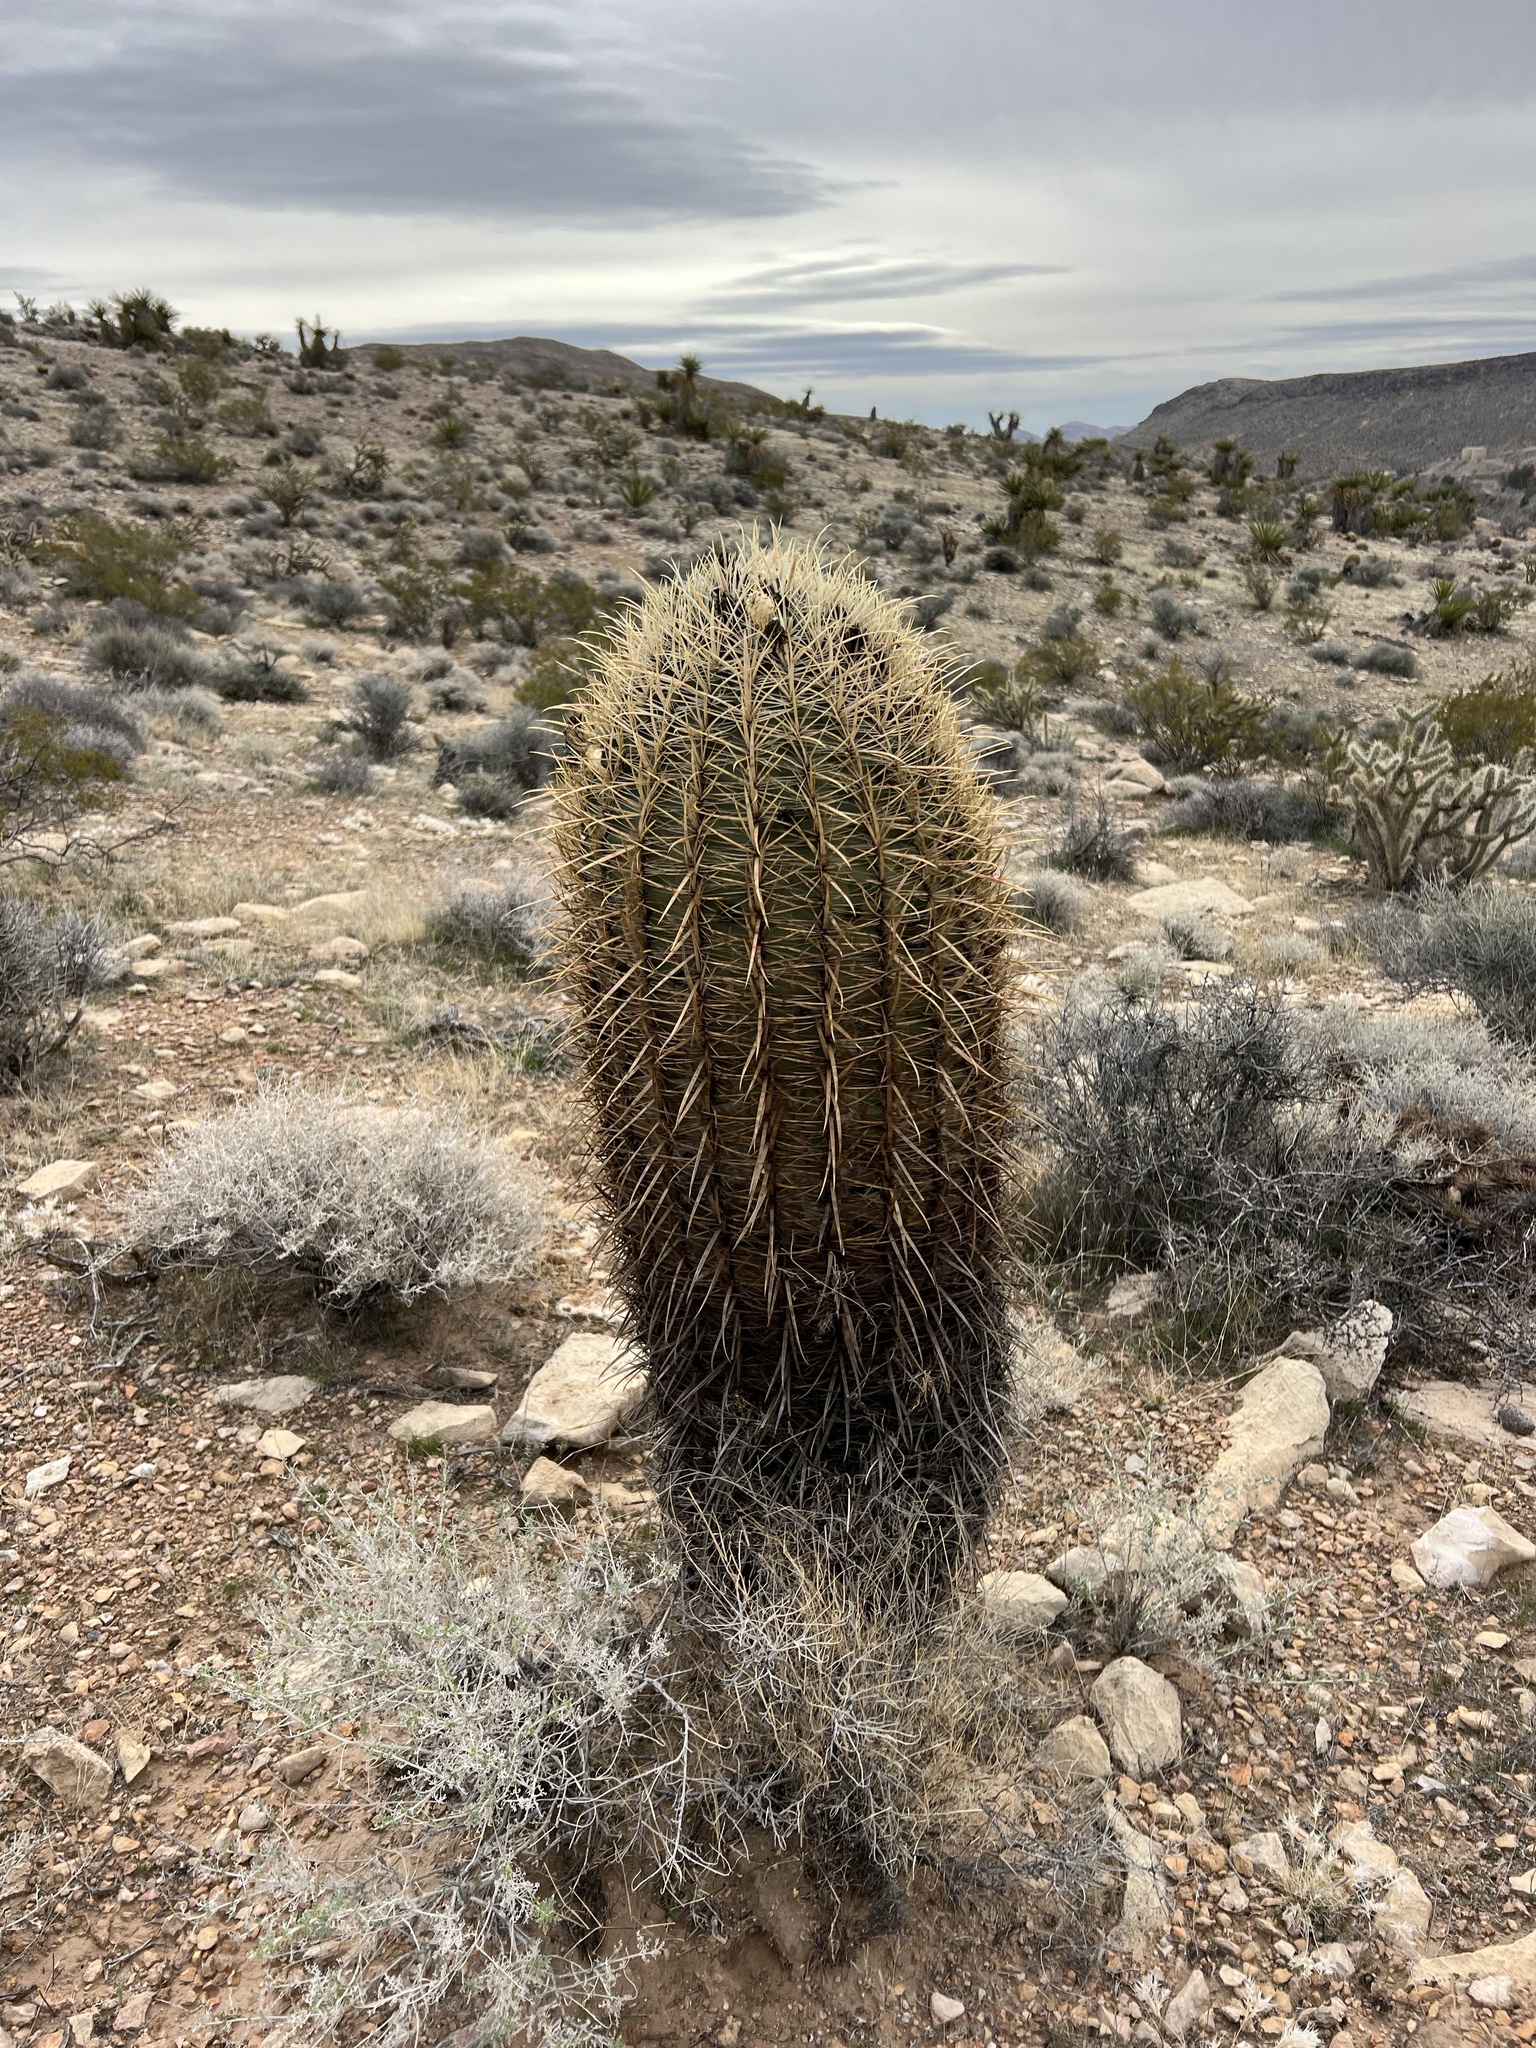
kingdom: Plantae
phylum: Tracheophyta
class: Magnoliopsida
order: Caryophyllales
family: Cactaceae
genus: Ferocactus
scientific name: Ferocactus cylindraceus
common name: California barrel cactus
